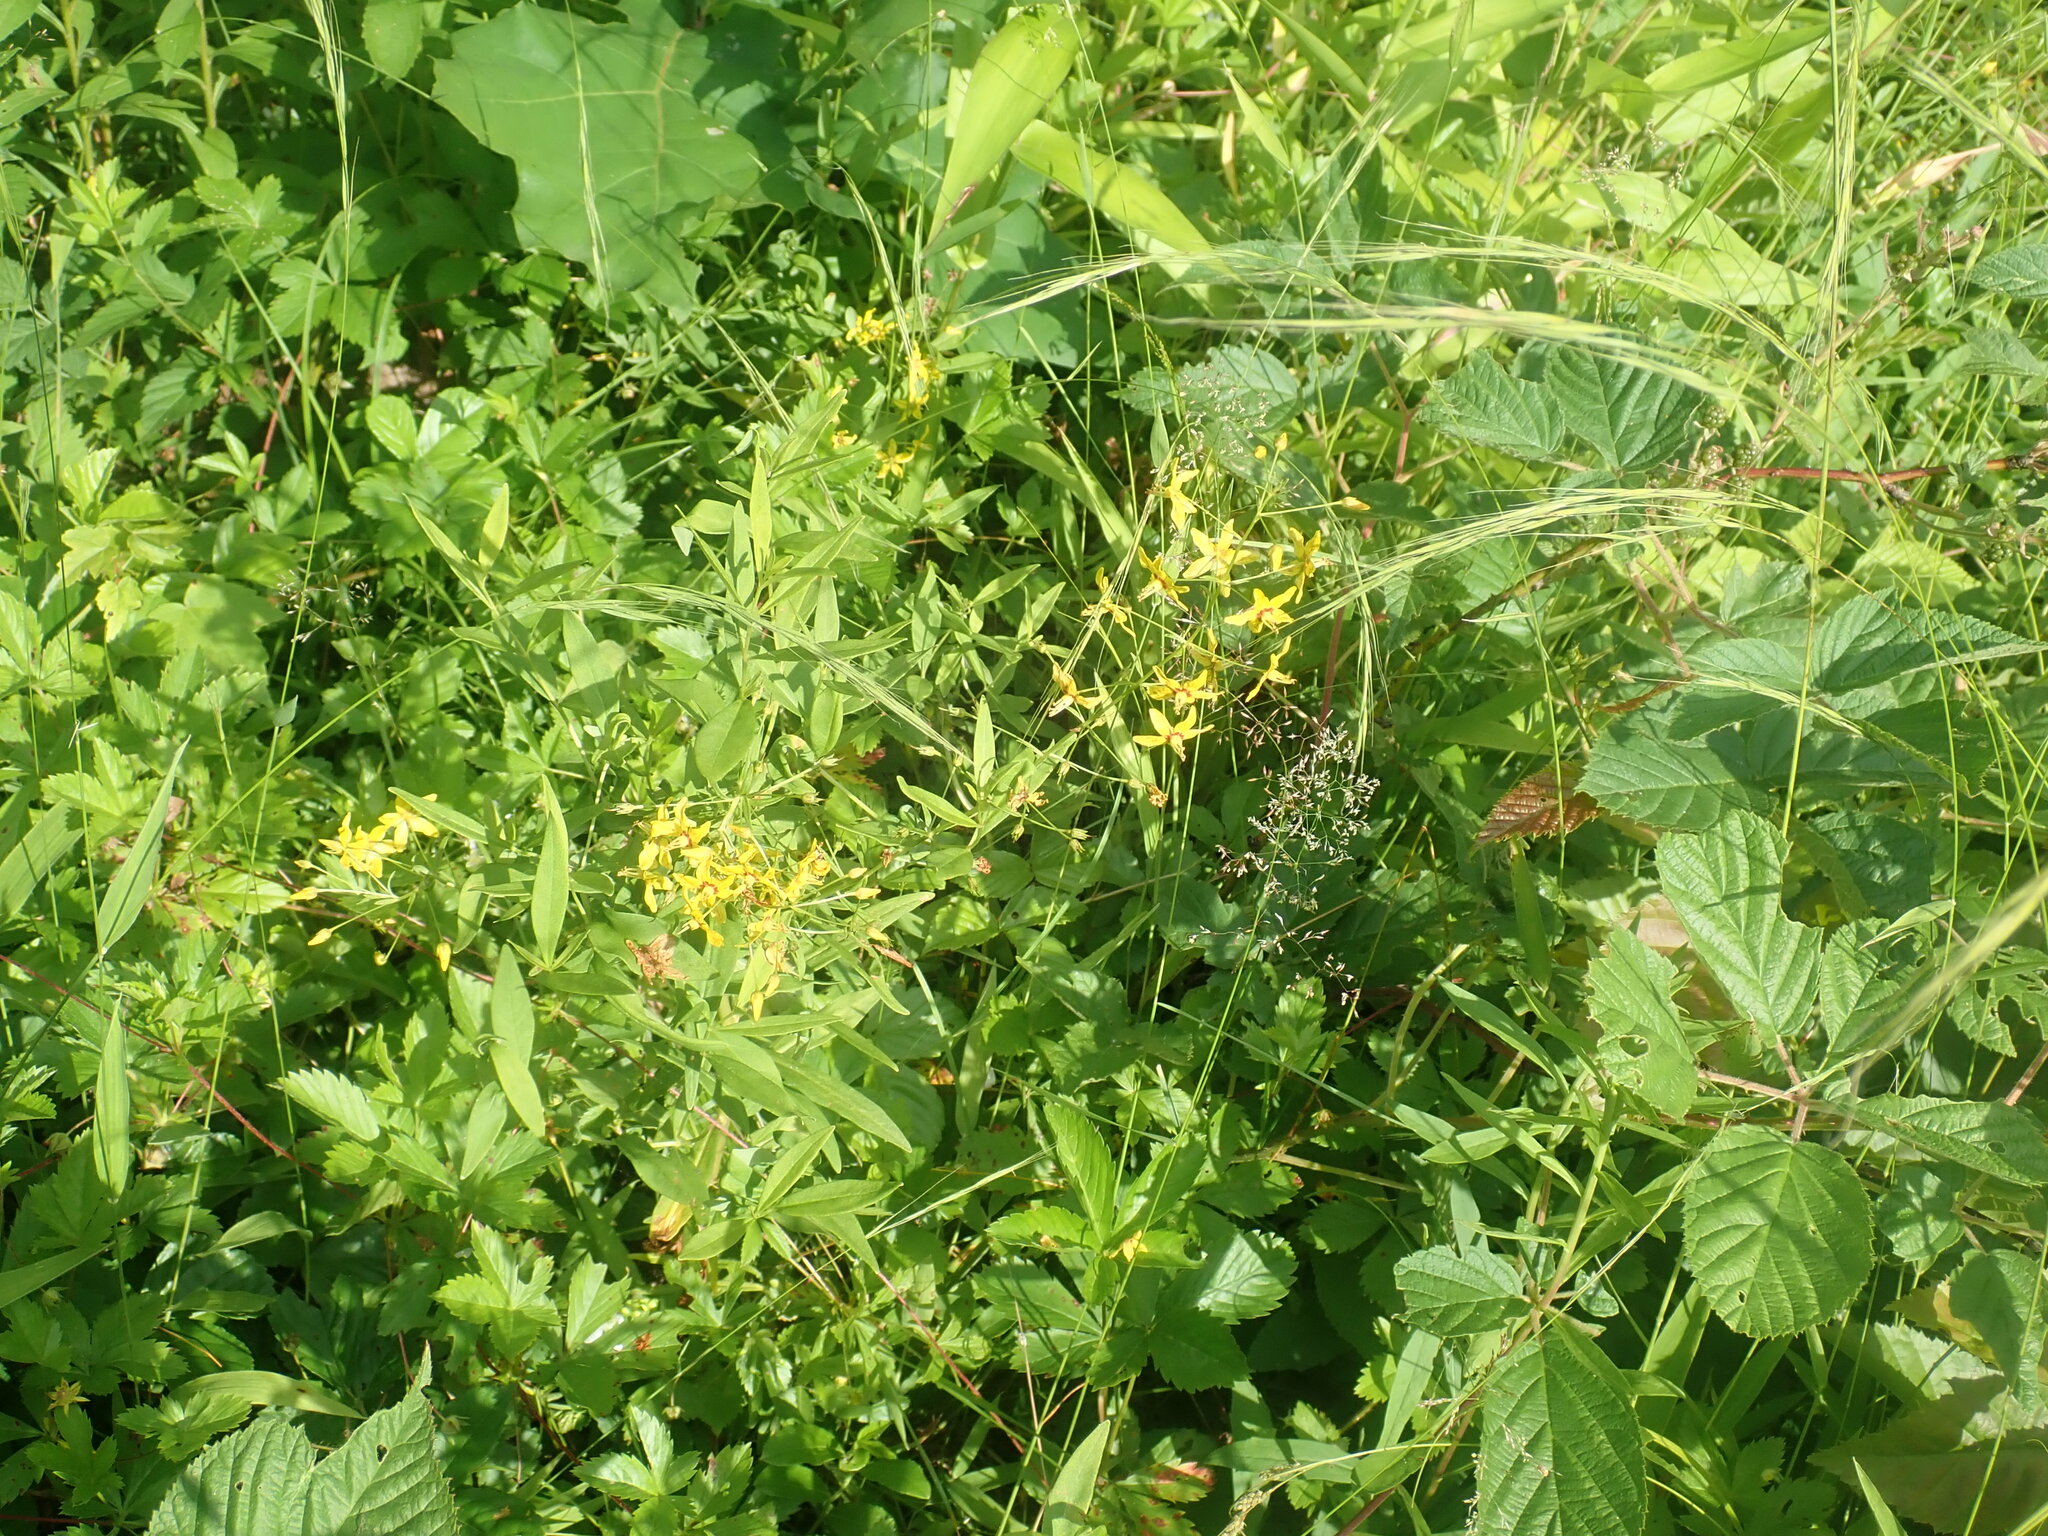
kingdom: Plantae
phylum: Tracheophyta
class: Magnoliopsida
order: Ericales
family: Primulaceae
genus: Lysimachia
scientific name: Lysimachia terrestris
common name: Lake loosestrife
